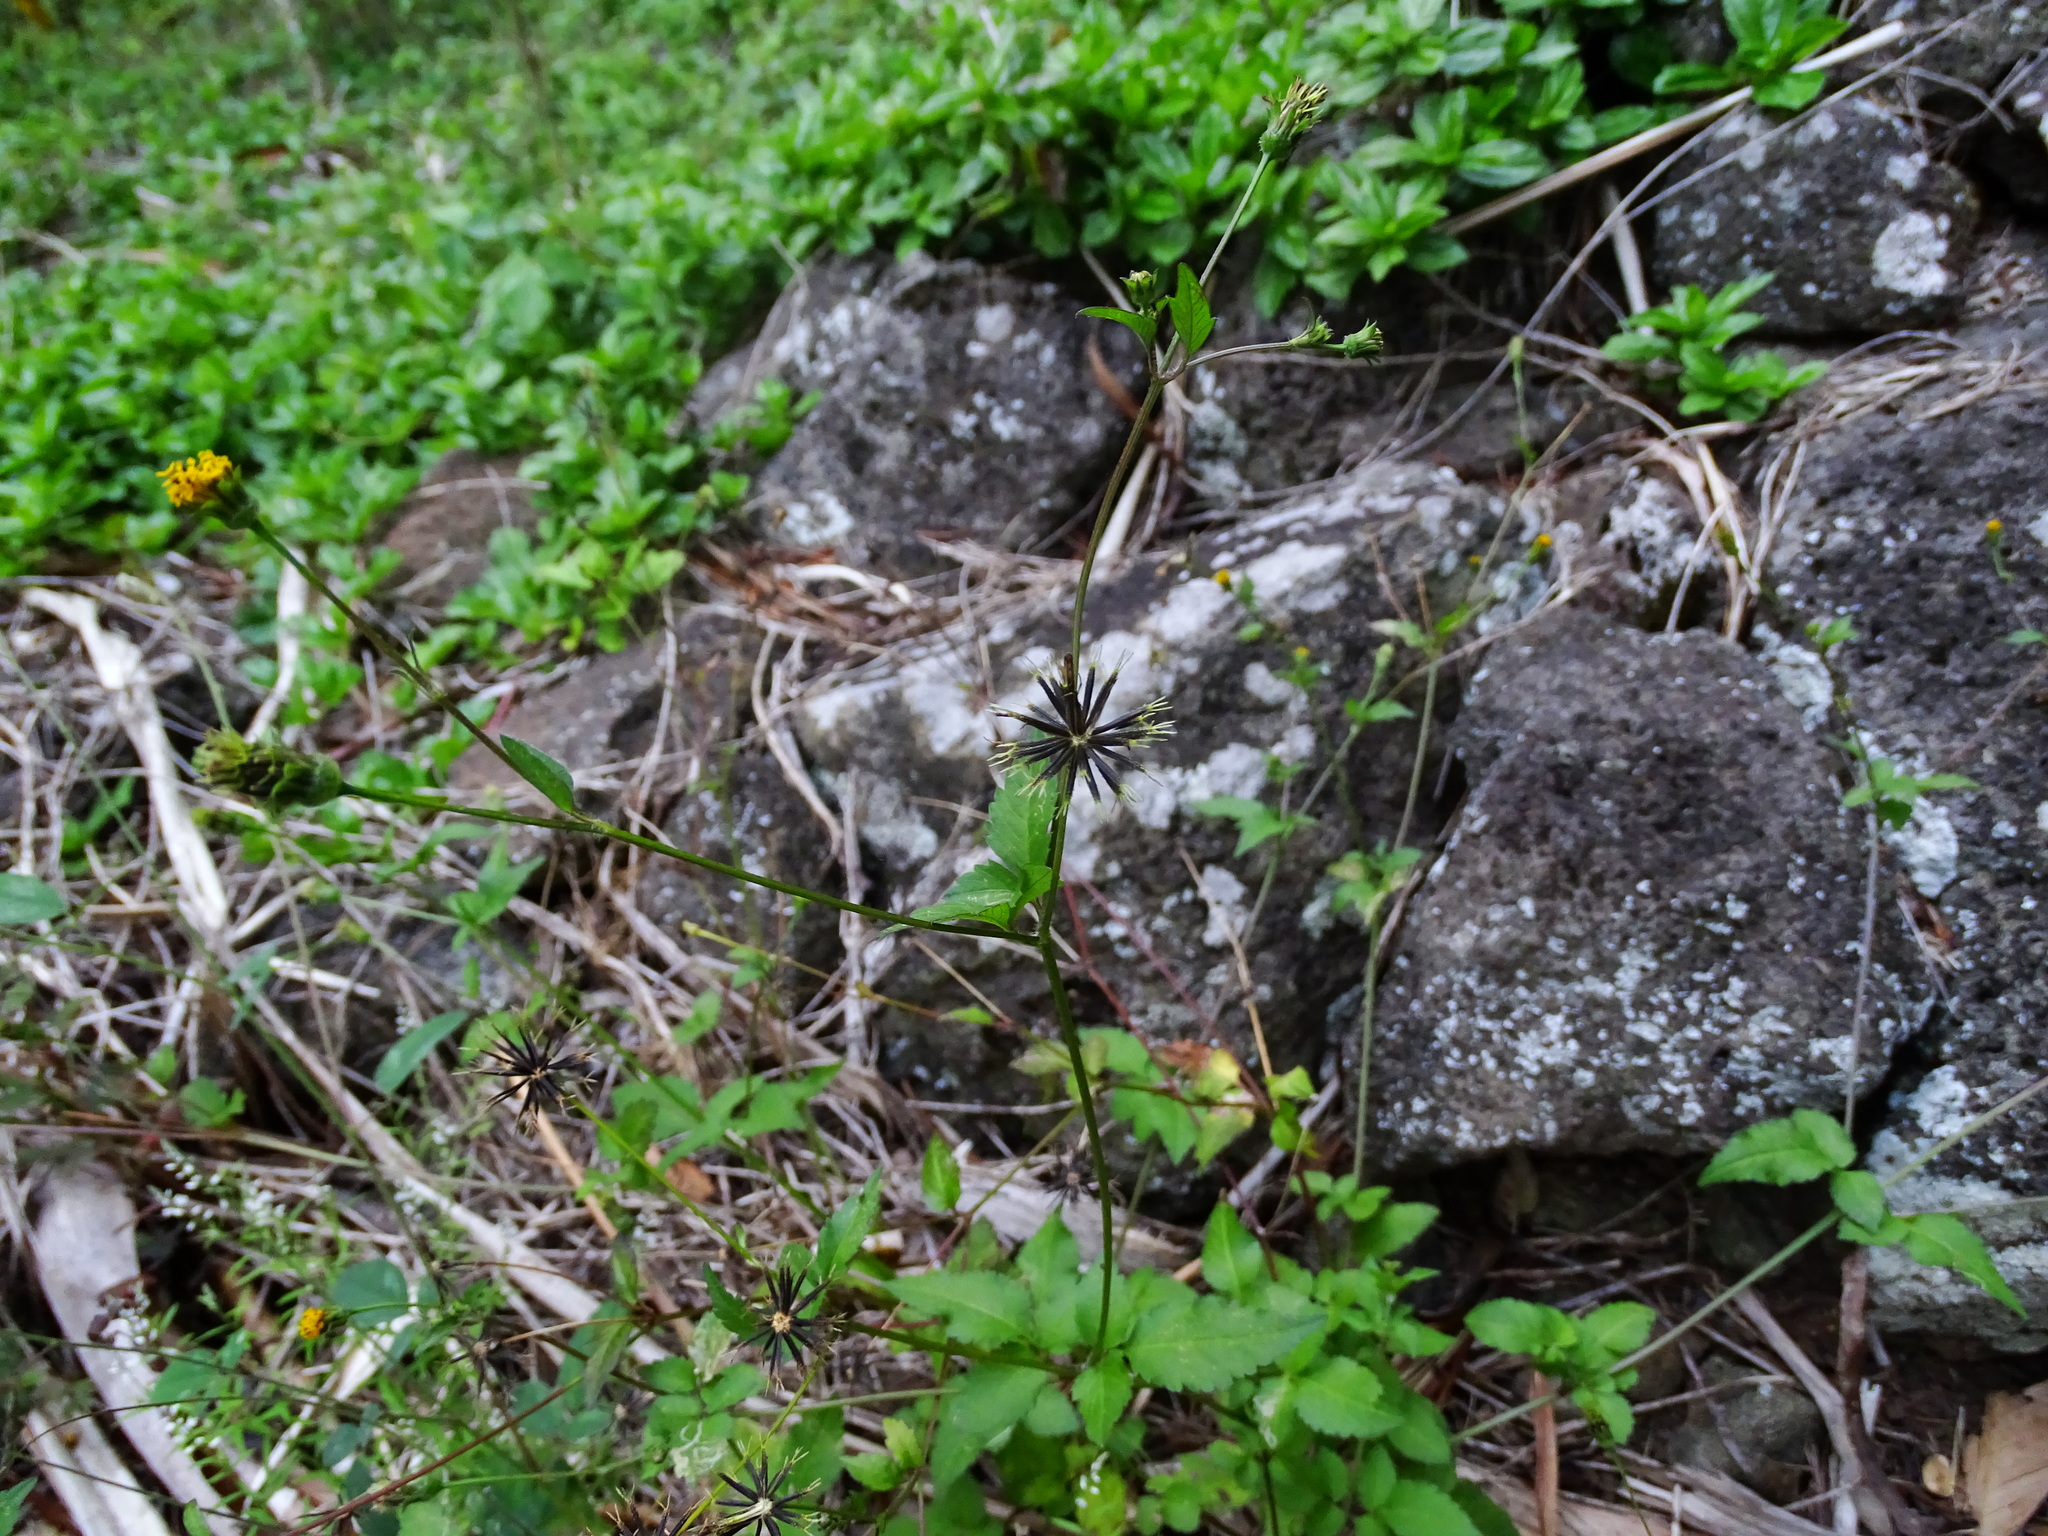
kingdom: Plantae
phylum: Tracheophyta
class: Magnoliopsida
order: Asterales
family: Asteraceae
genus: Bidens
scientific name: Bidens alba
